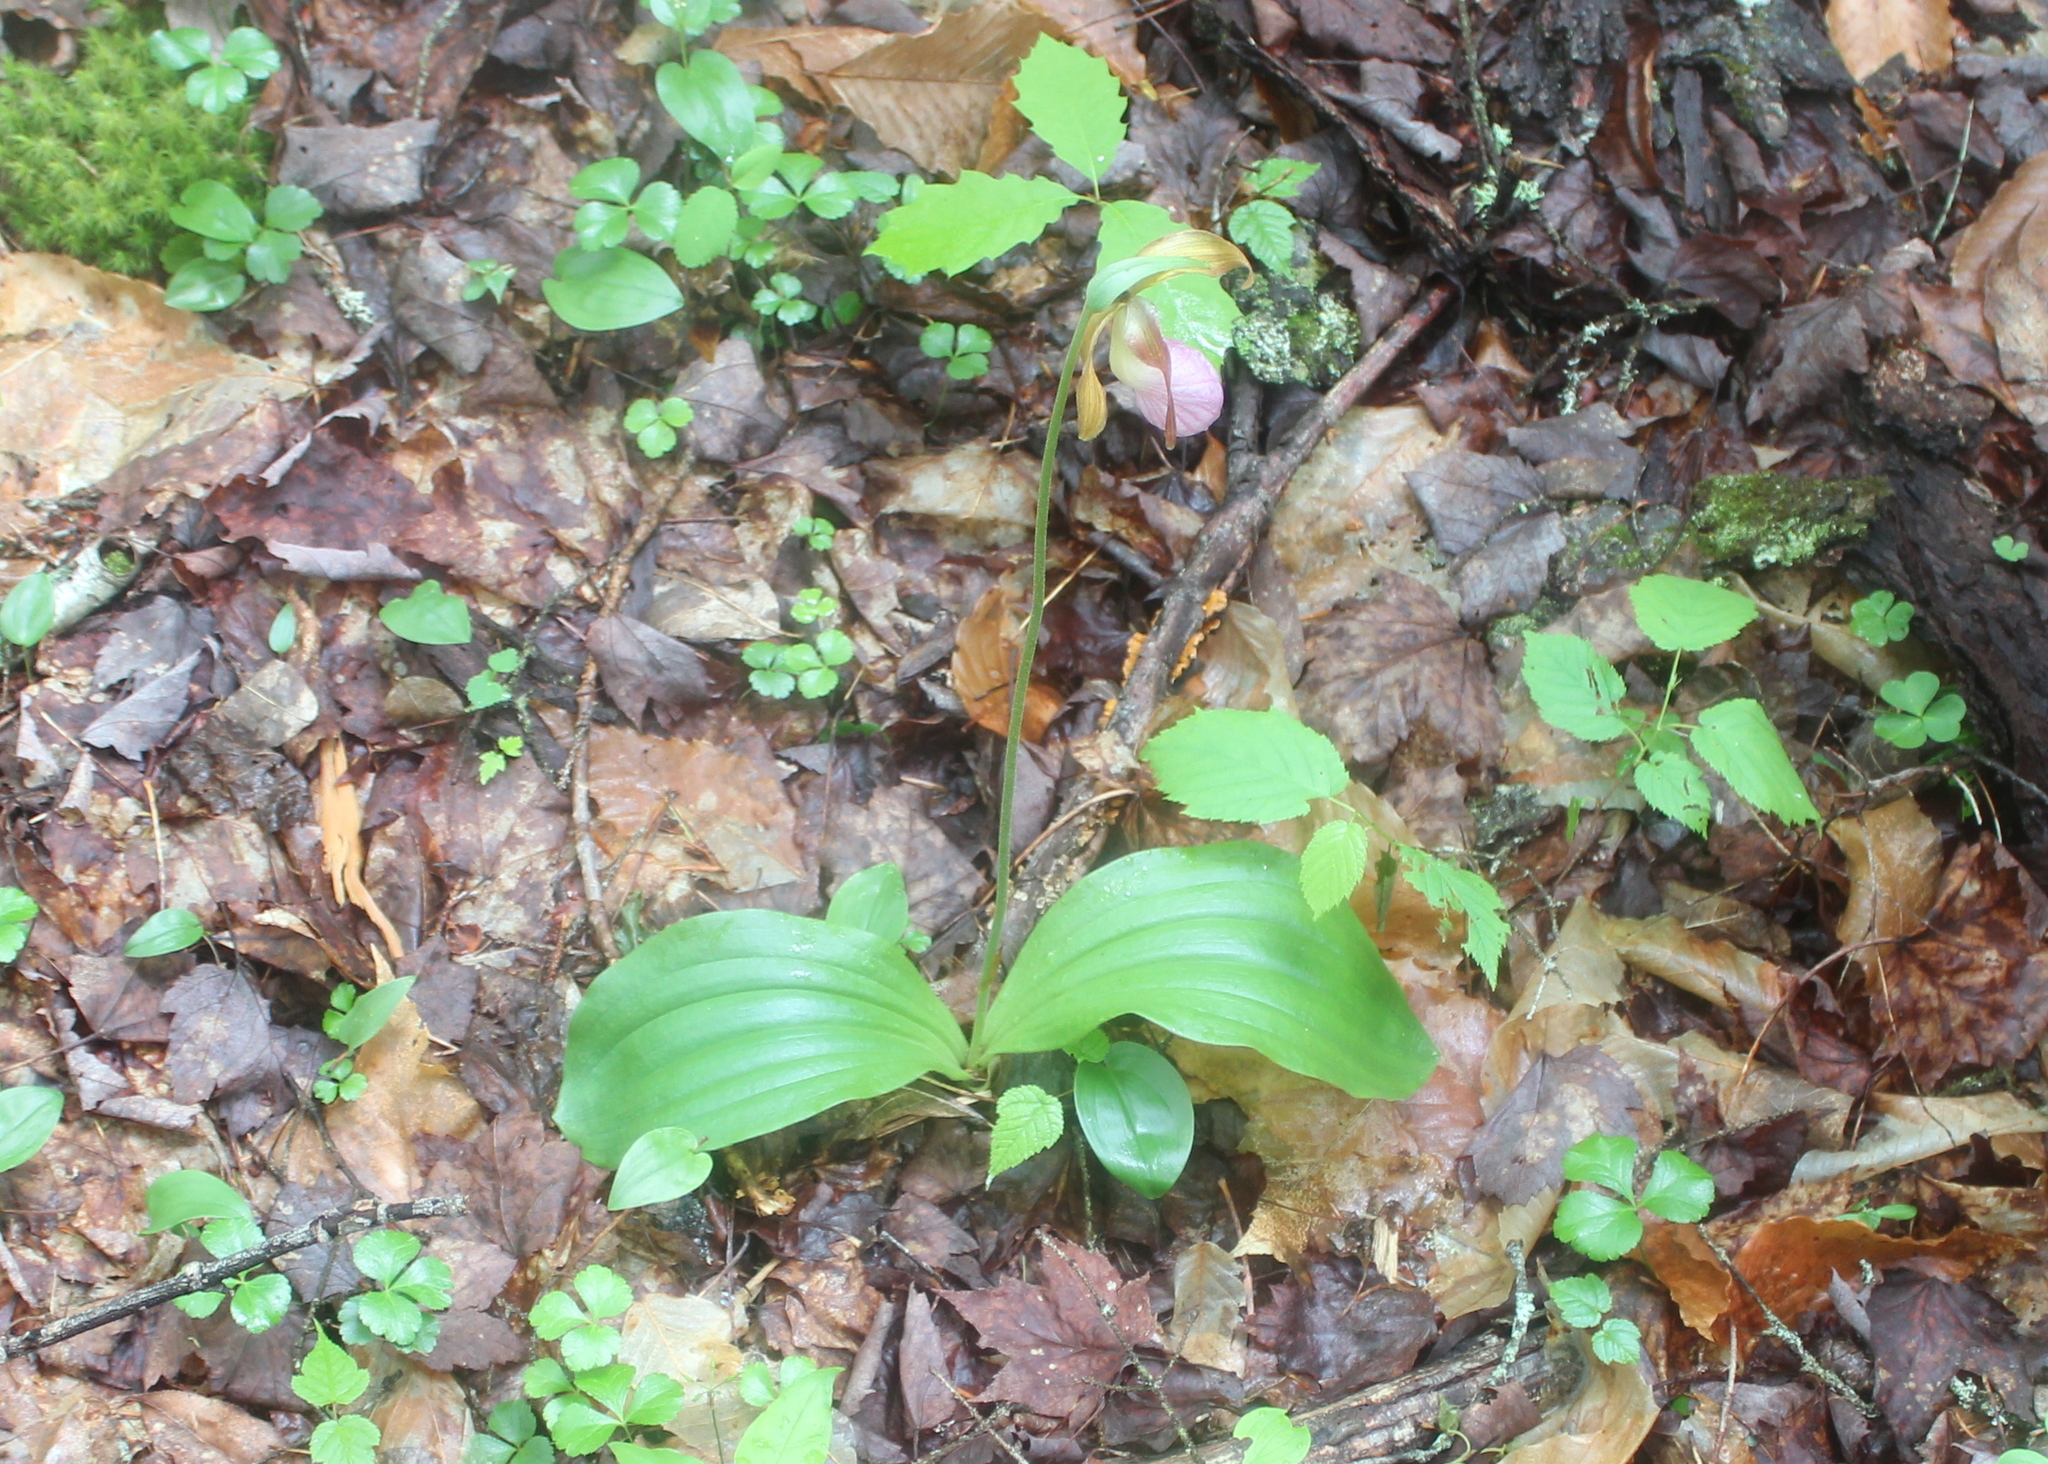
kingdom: Plantae
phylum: Tracheophyta
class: Liliopsida
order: Asparagales
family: Orchidaceae
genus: Cypripedium
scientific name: Cypripedium acaule
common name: Pink lady's-slipper
